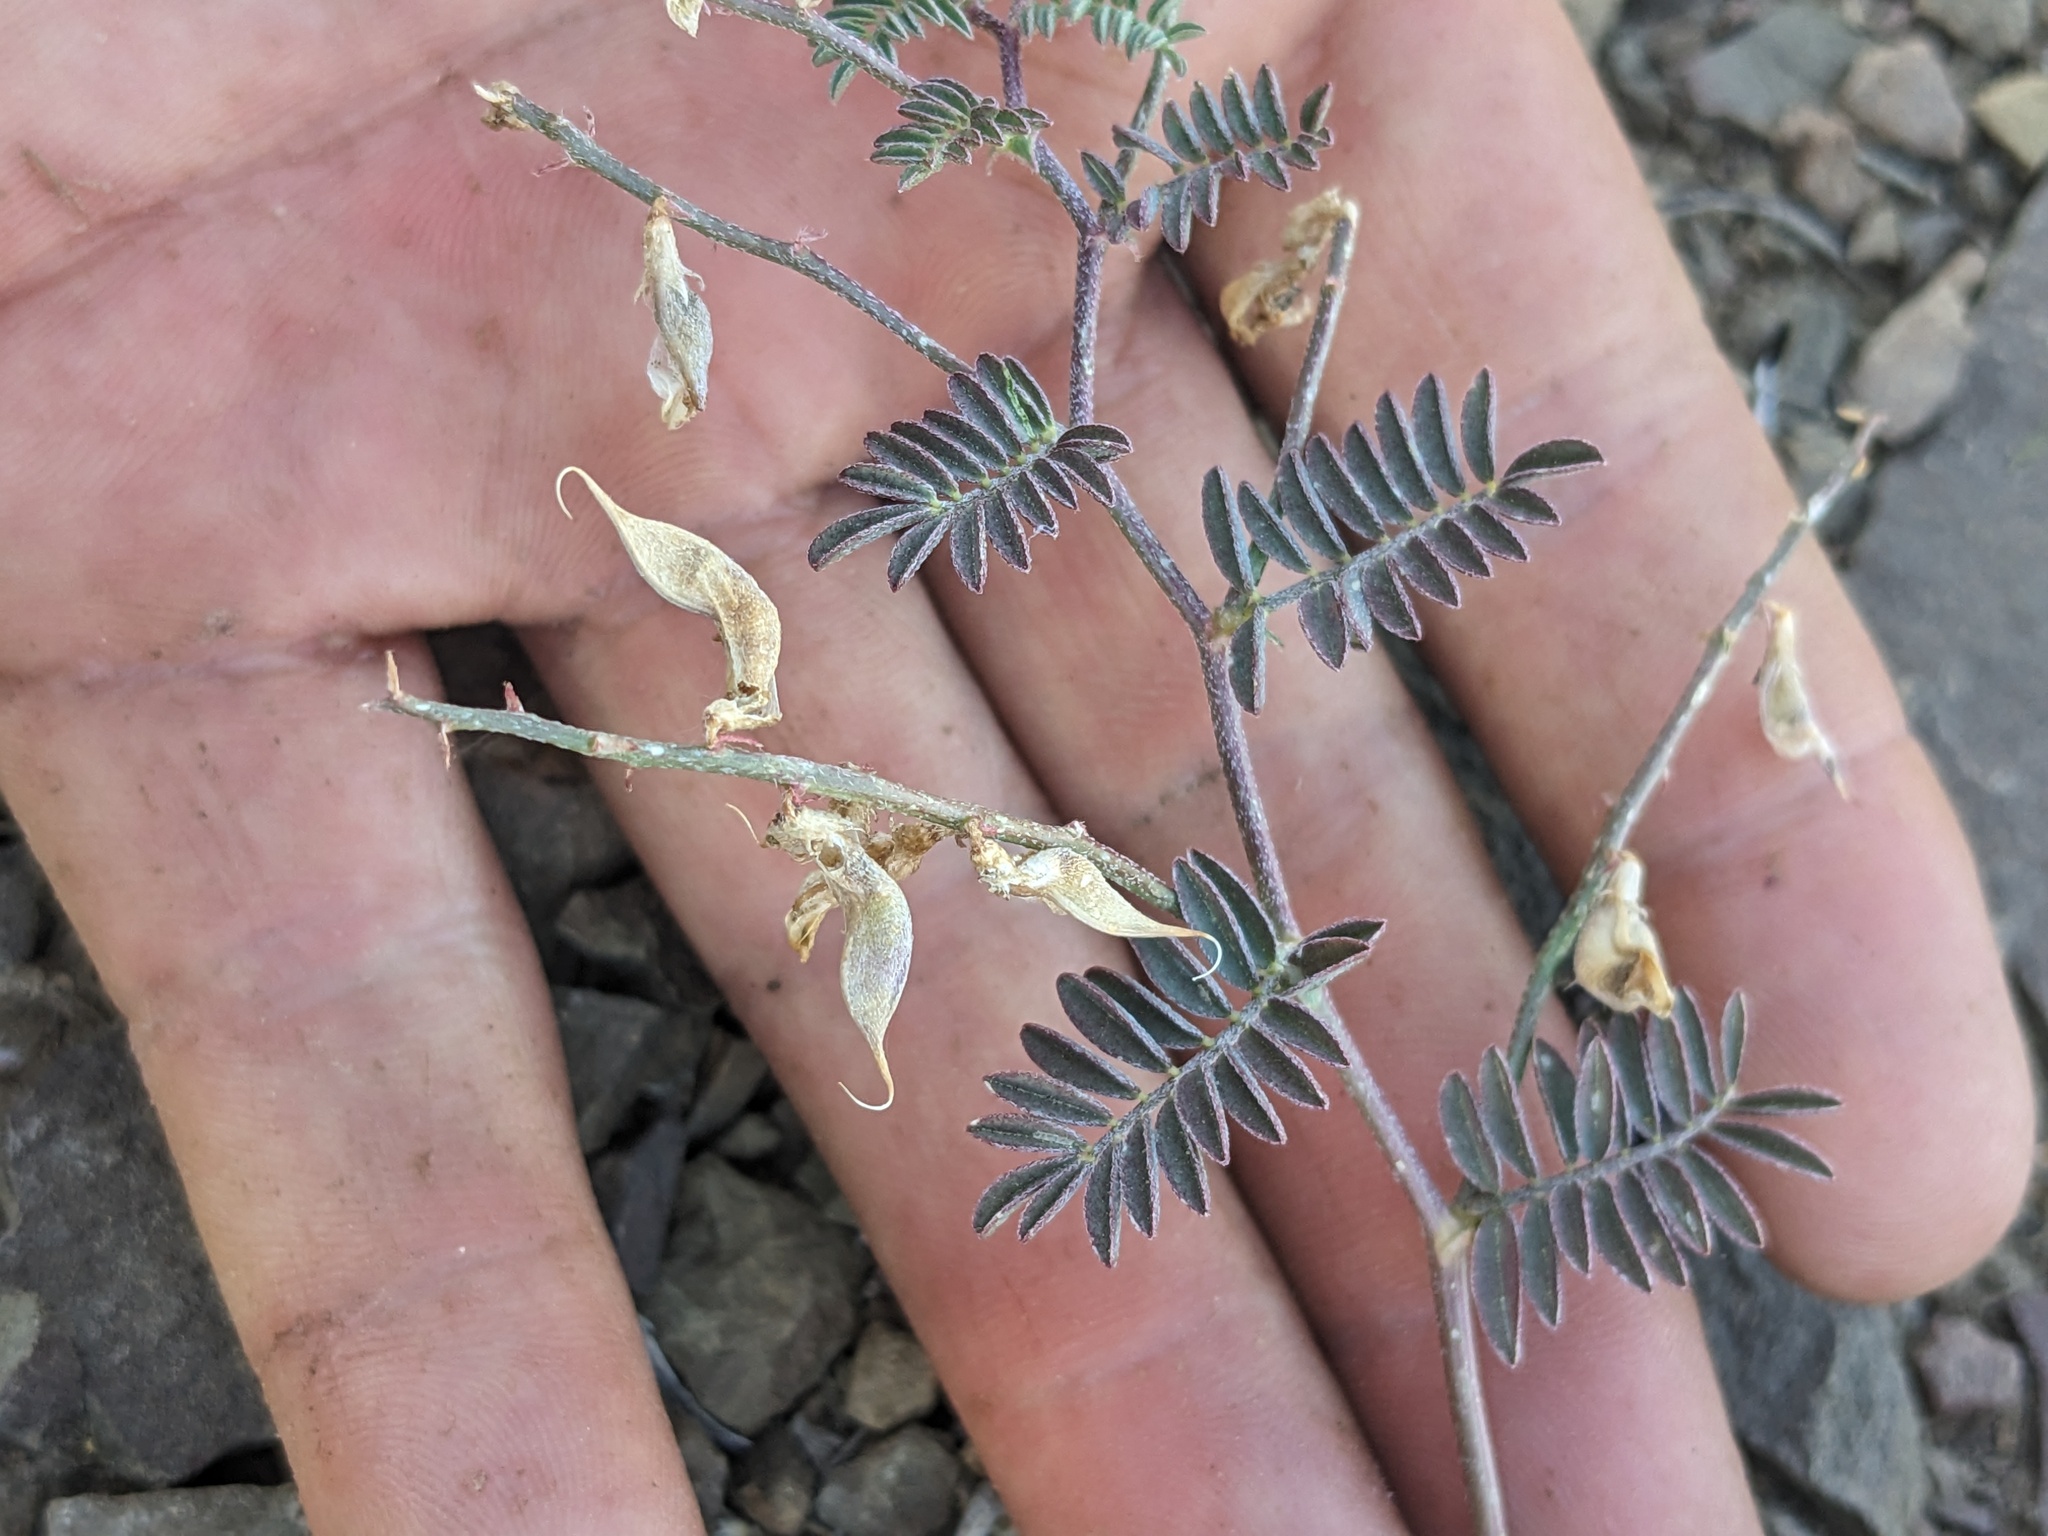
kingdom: Plantae
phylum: Tracheophyta
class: Magnoliopsida
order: Fabales
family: Fabaceae
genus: Astragalus
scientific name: Astragalus inyoensis
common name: Inyo locoweed
